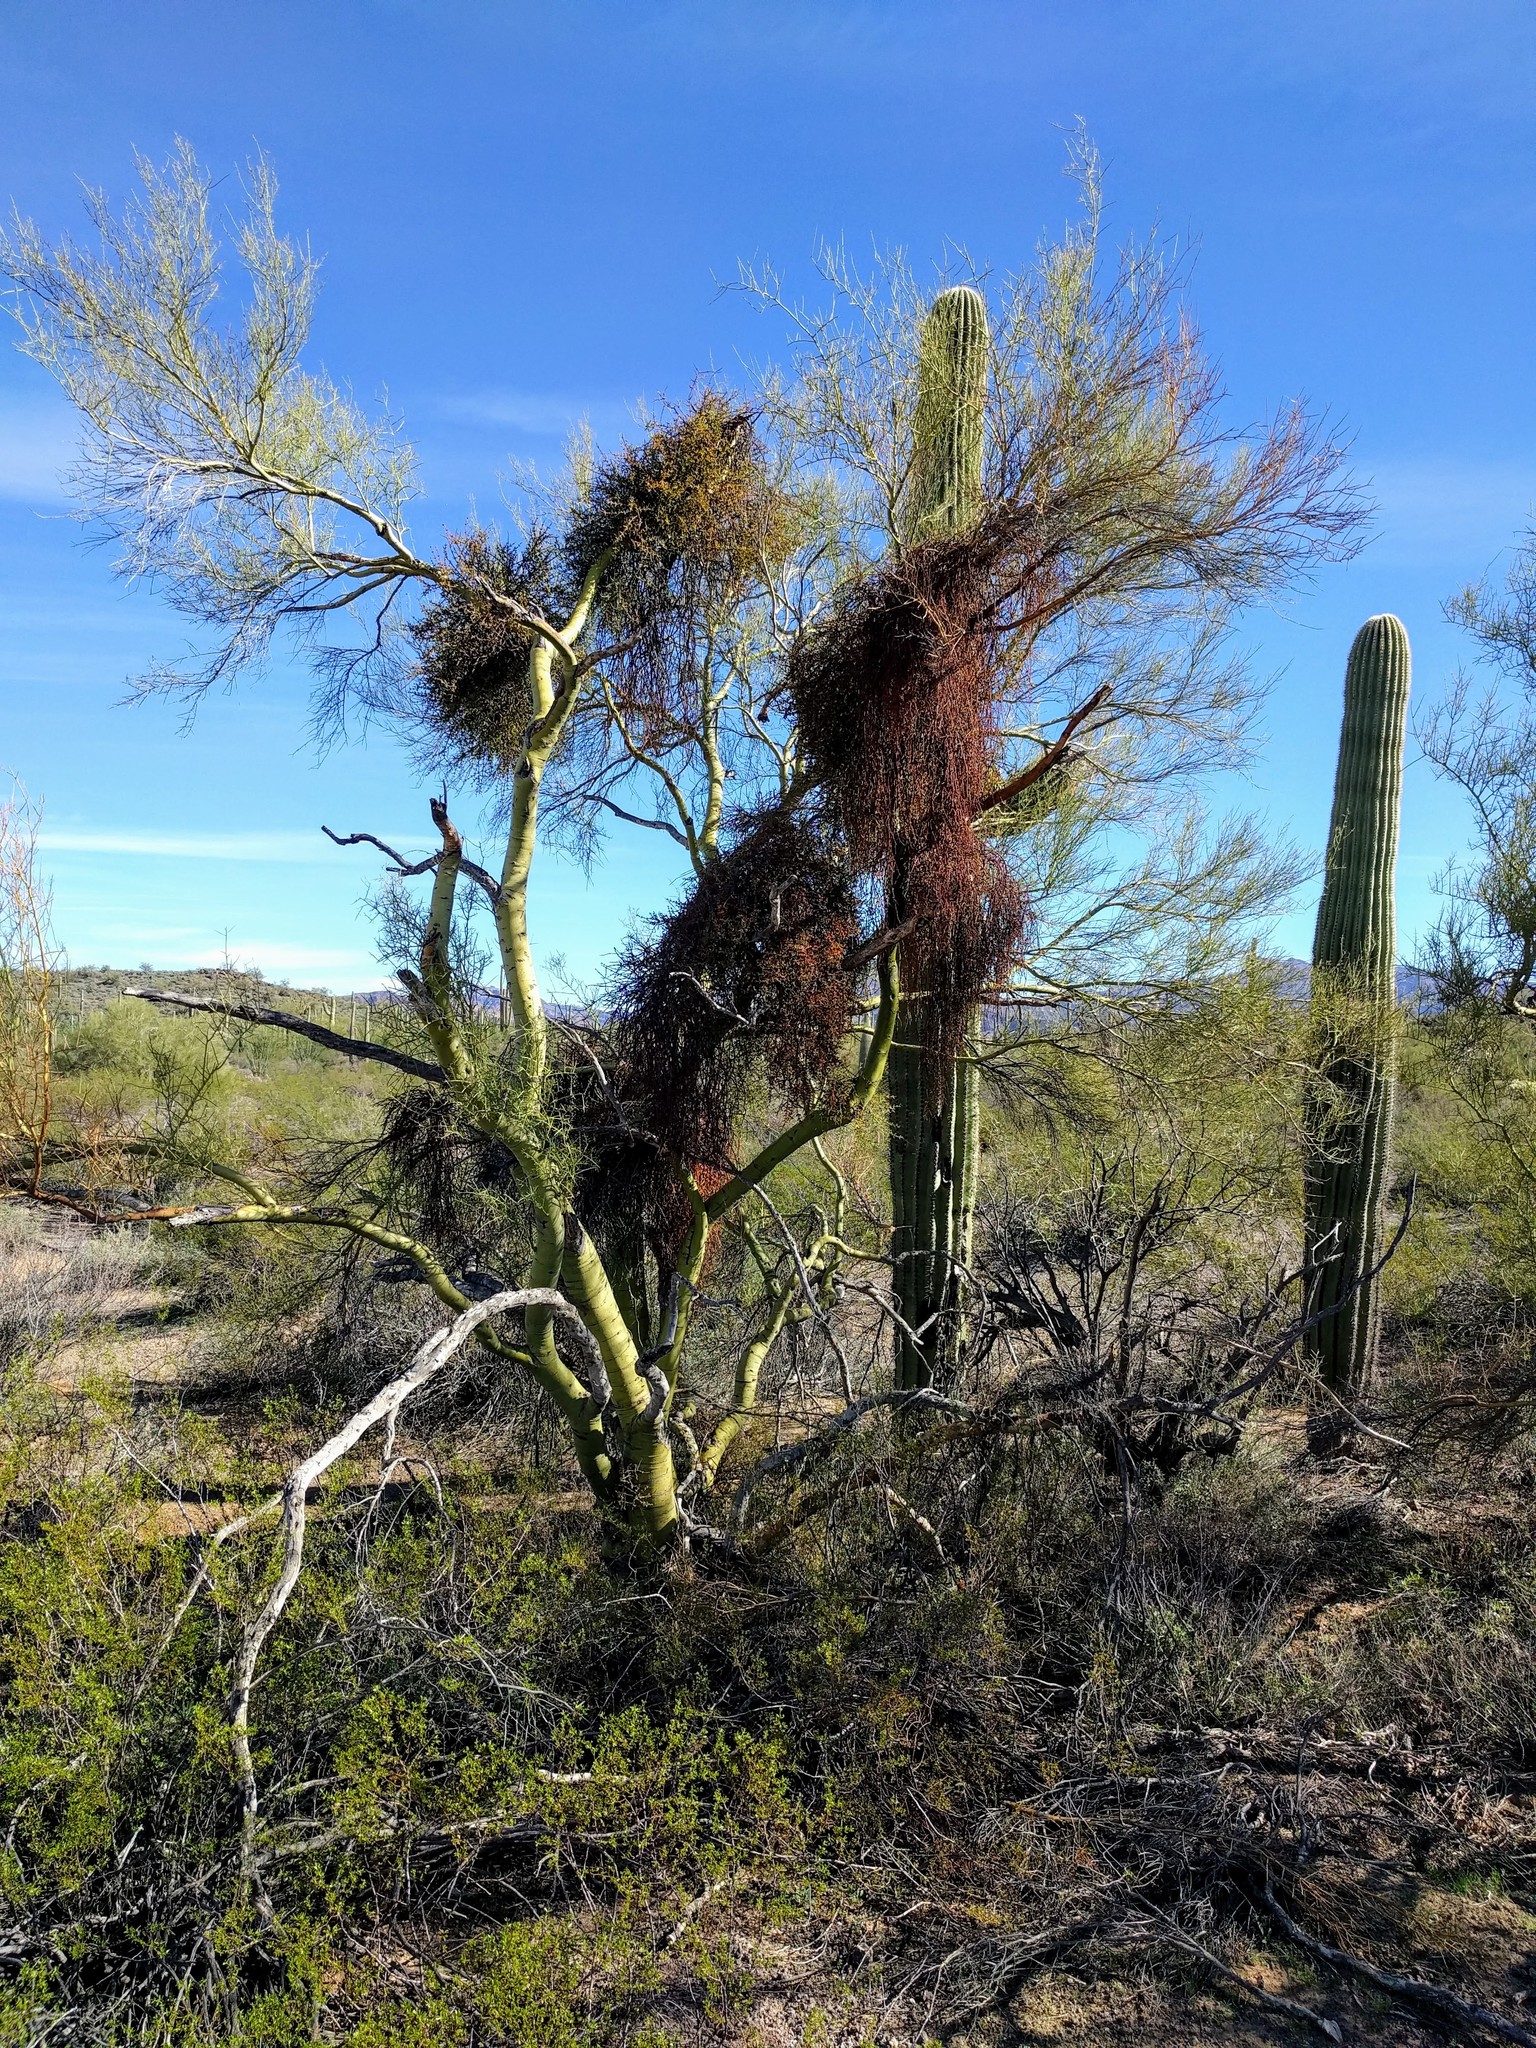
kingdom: Plantae
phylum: Tracheophyta
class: Magnoliopsida
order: Santalales
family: Viscaceae
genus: Phoradendron
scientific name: Phoradendron californicum
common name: Acacia mistletoe
